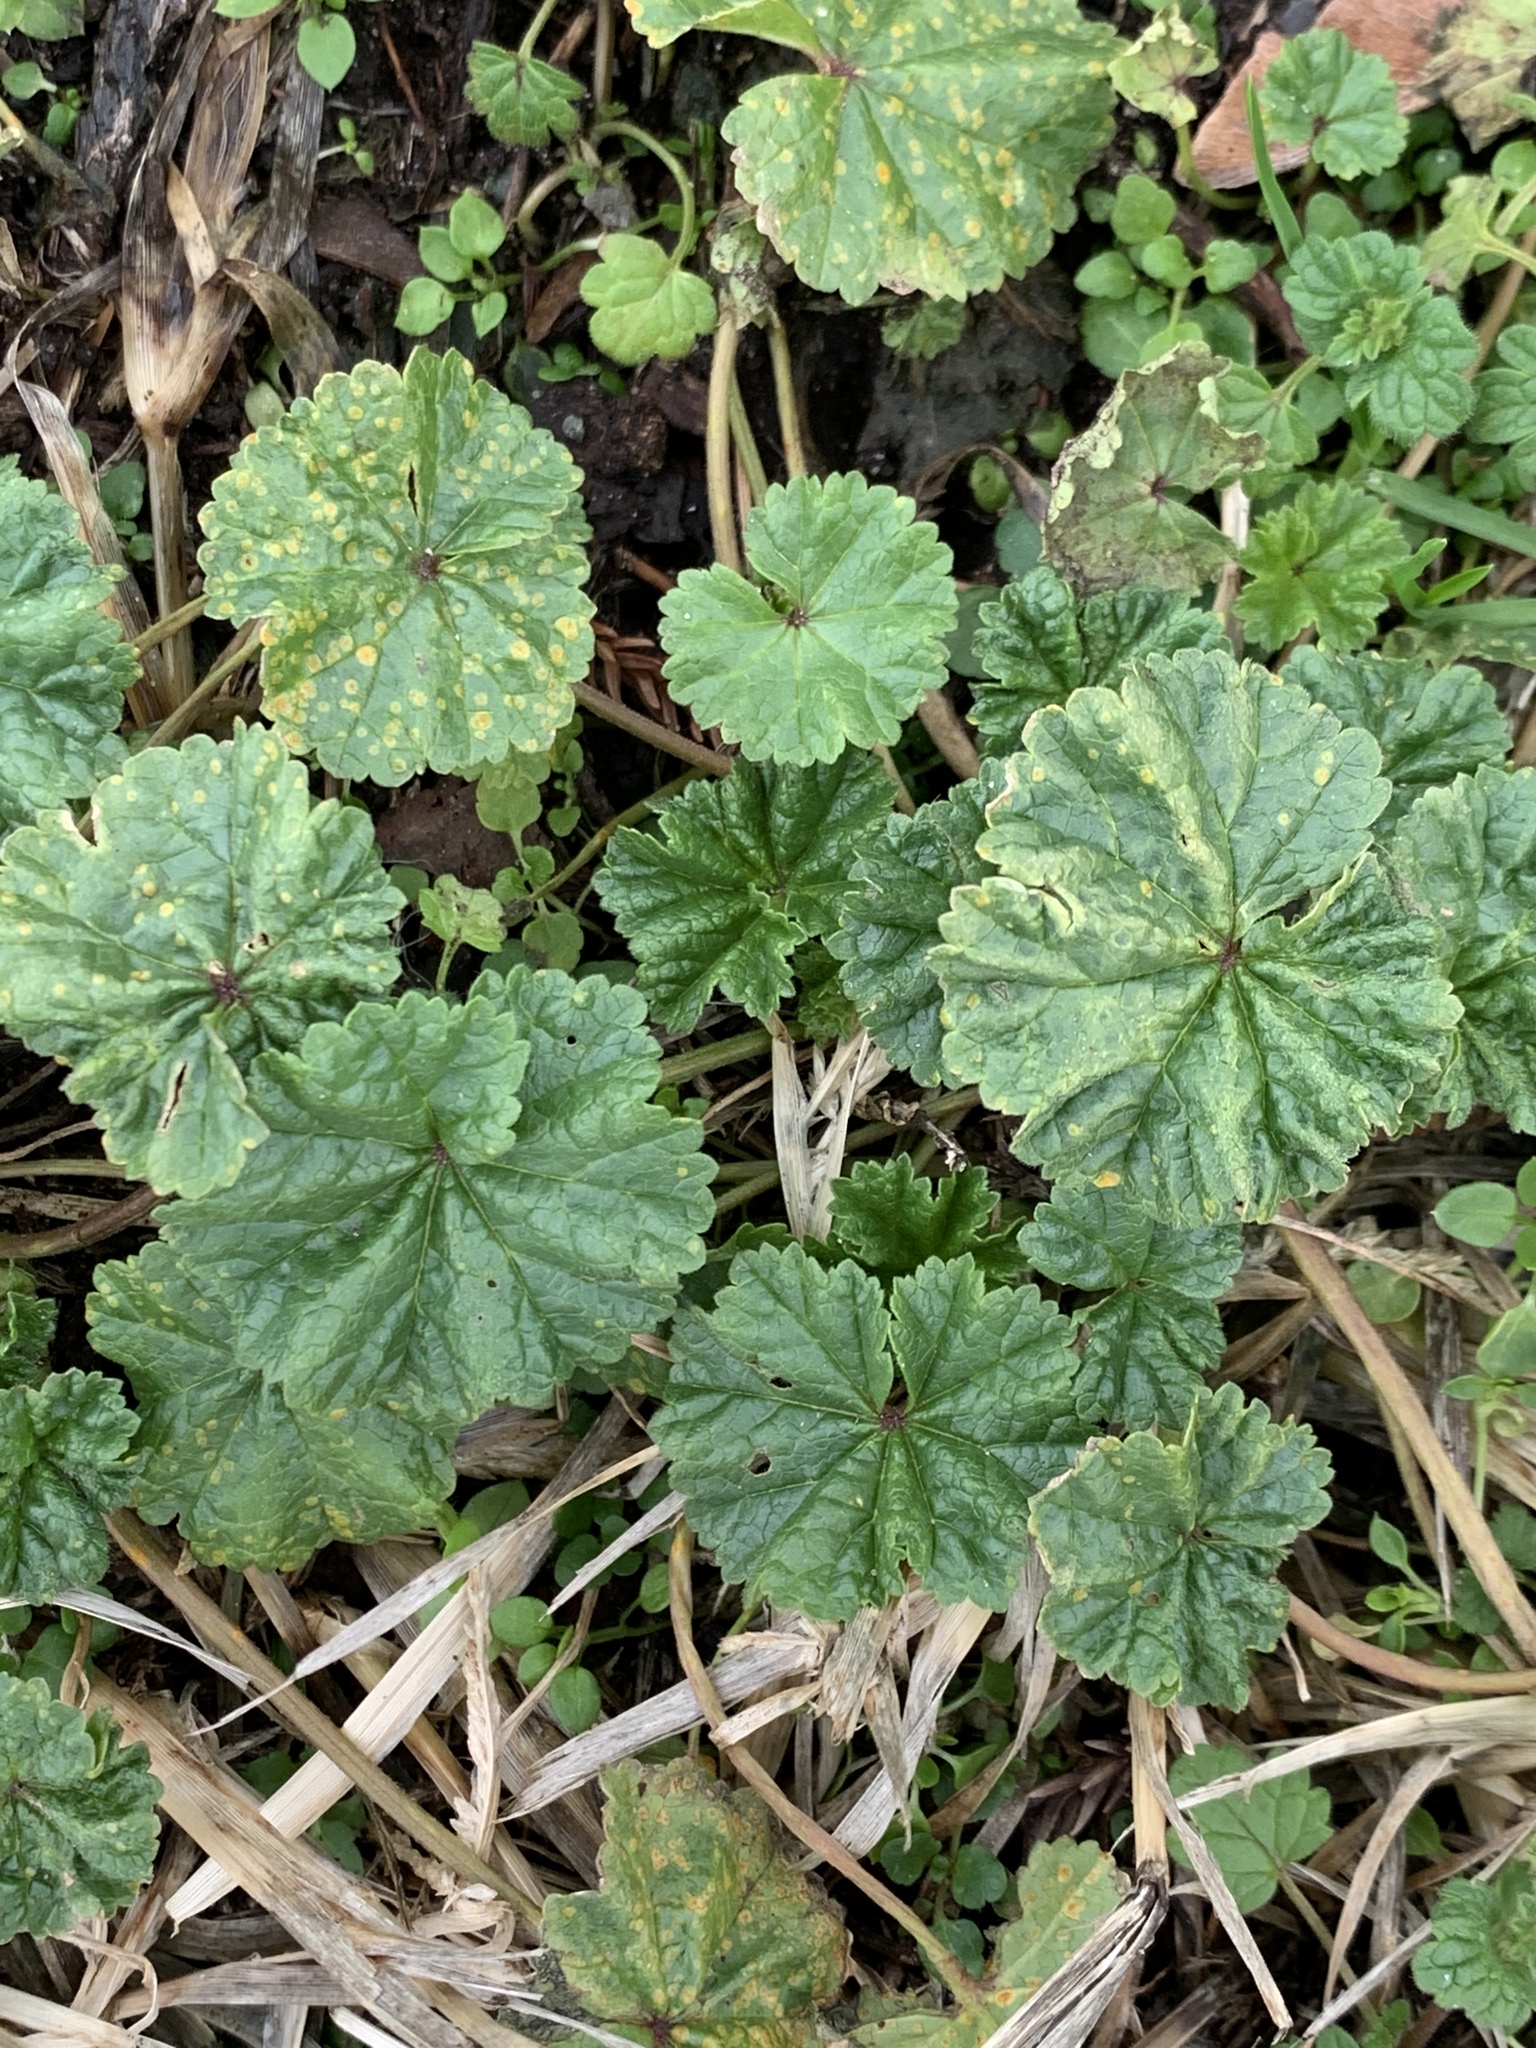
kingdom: Plantae
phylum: Tracheophyta
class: Magnoliopsida
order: Malvales
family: Malvaceae
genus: Malva
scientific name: Malva neglecta
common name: Common mallow
